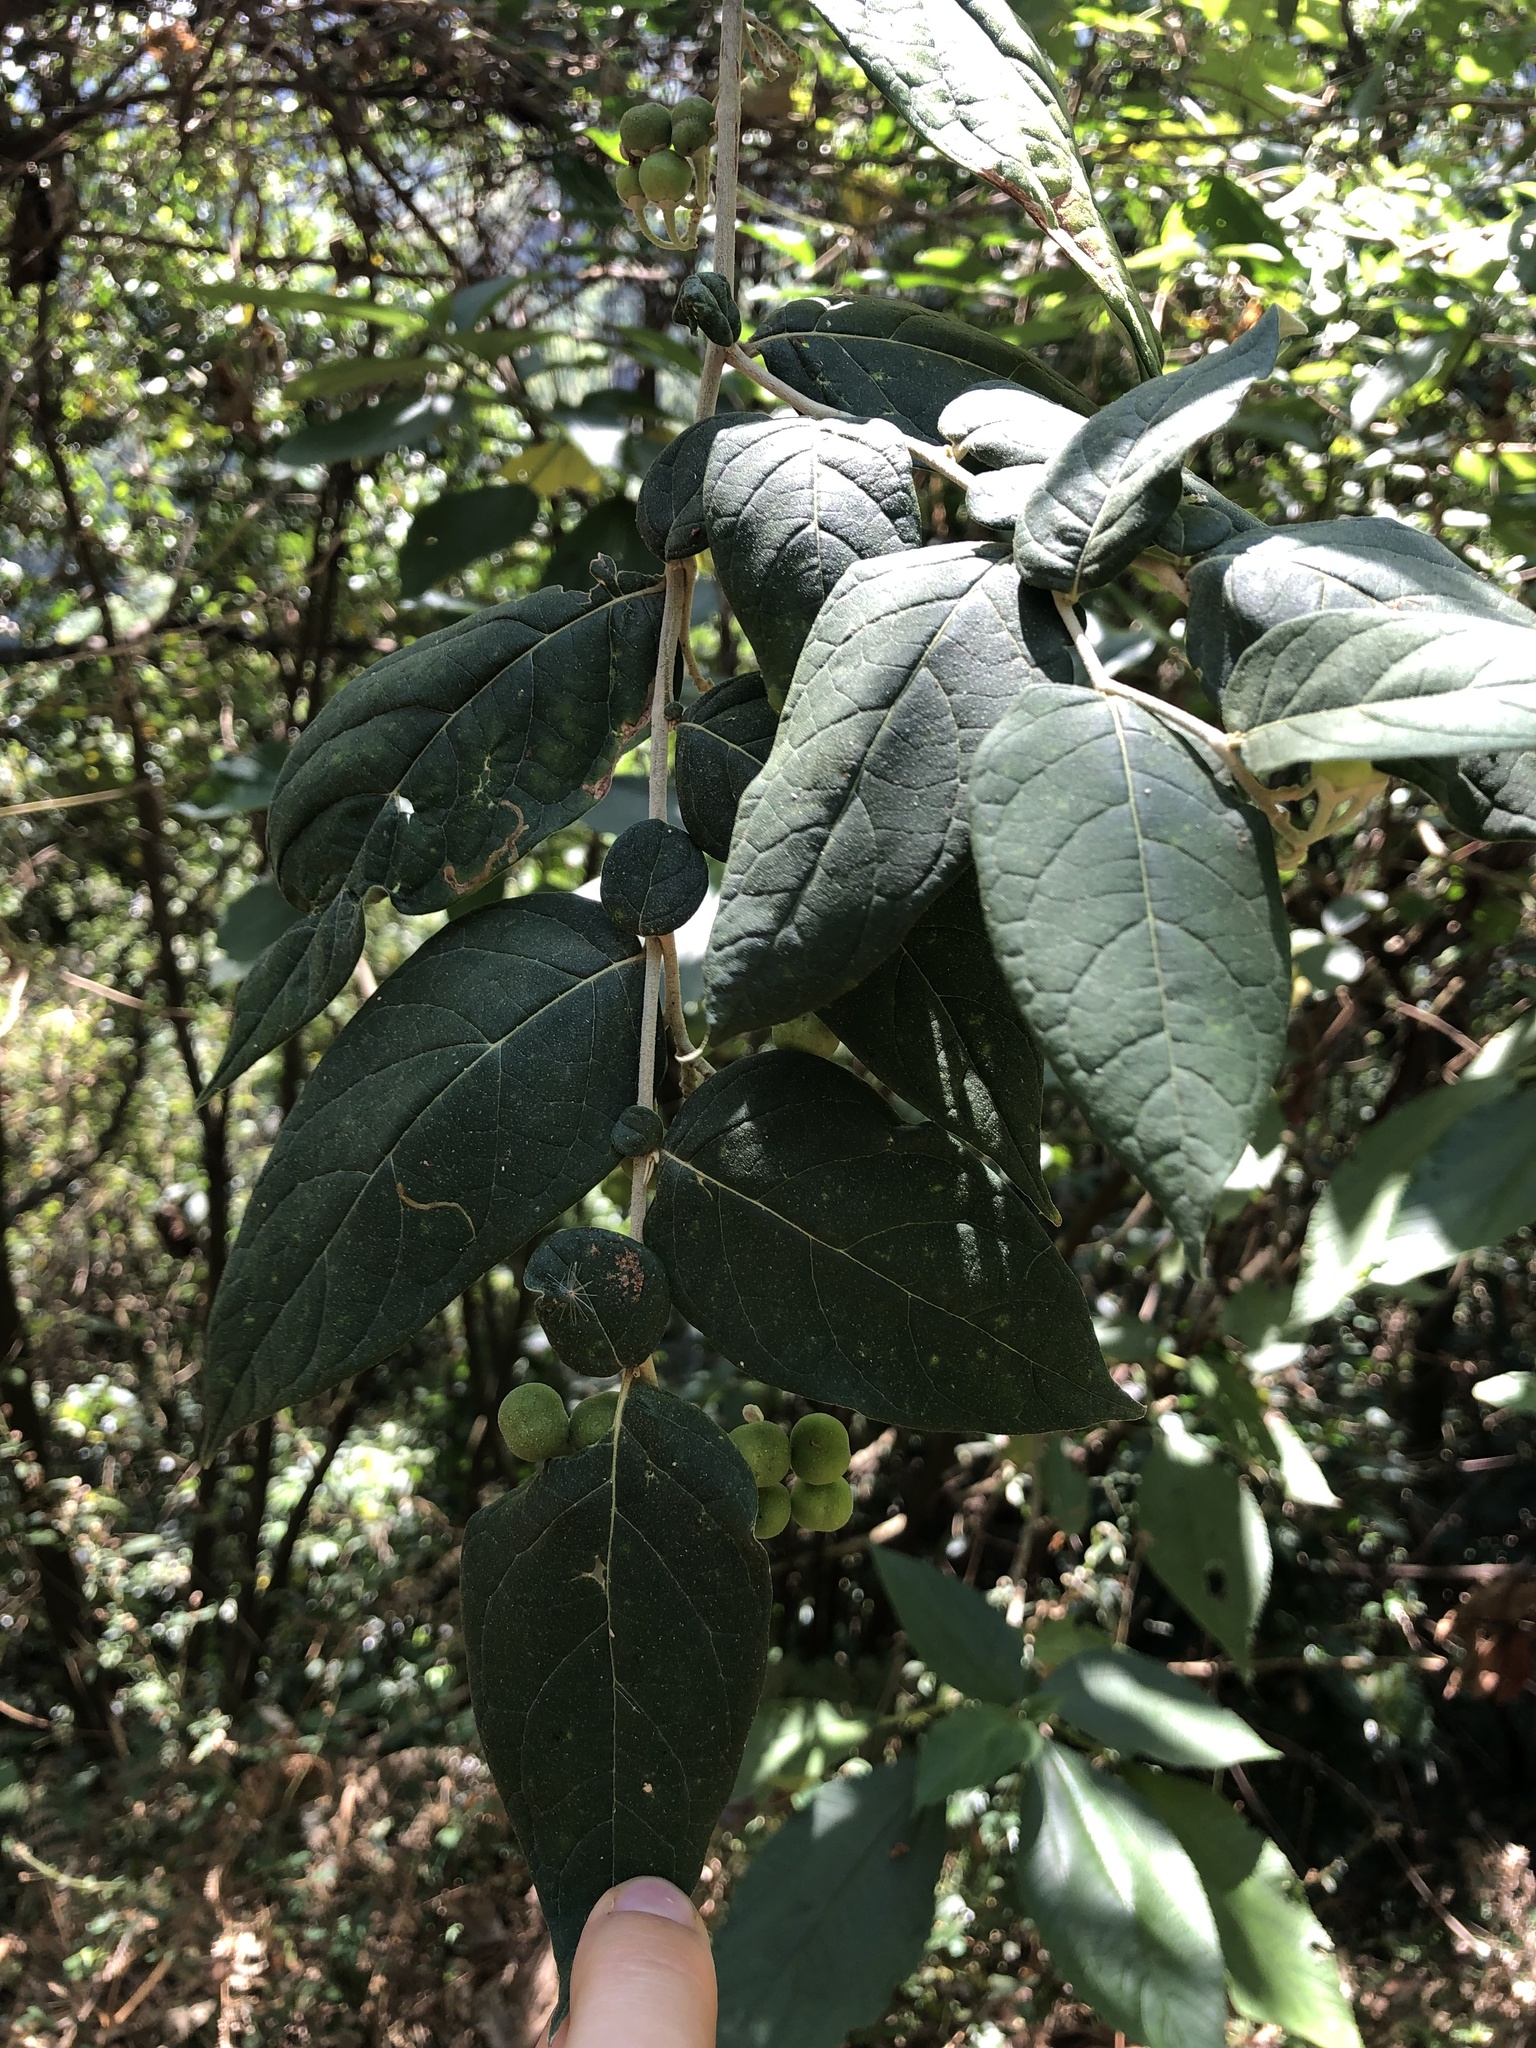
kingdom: Plantae
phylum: Tracheophyta
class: Magnoliopsida
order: Solanales
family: Solanaceae
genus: Solanum
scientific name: Solanum schlechtendalianum
